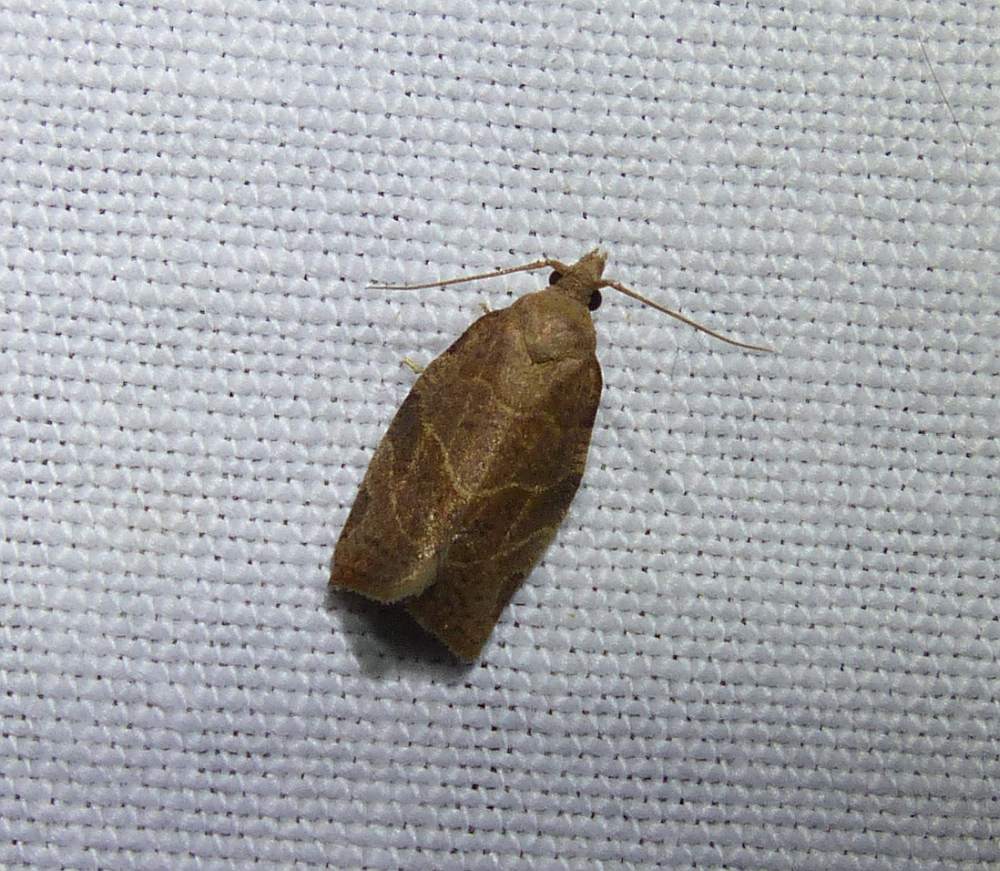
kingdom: Animalia
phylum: Arthropoda
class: Insecta
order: Lepidoptera
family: Tortricidae
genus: Pandemis
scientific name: Pandemis limitata
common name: Three-lined leafroller moth
